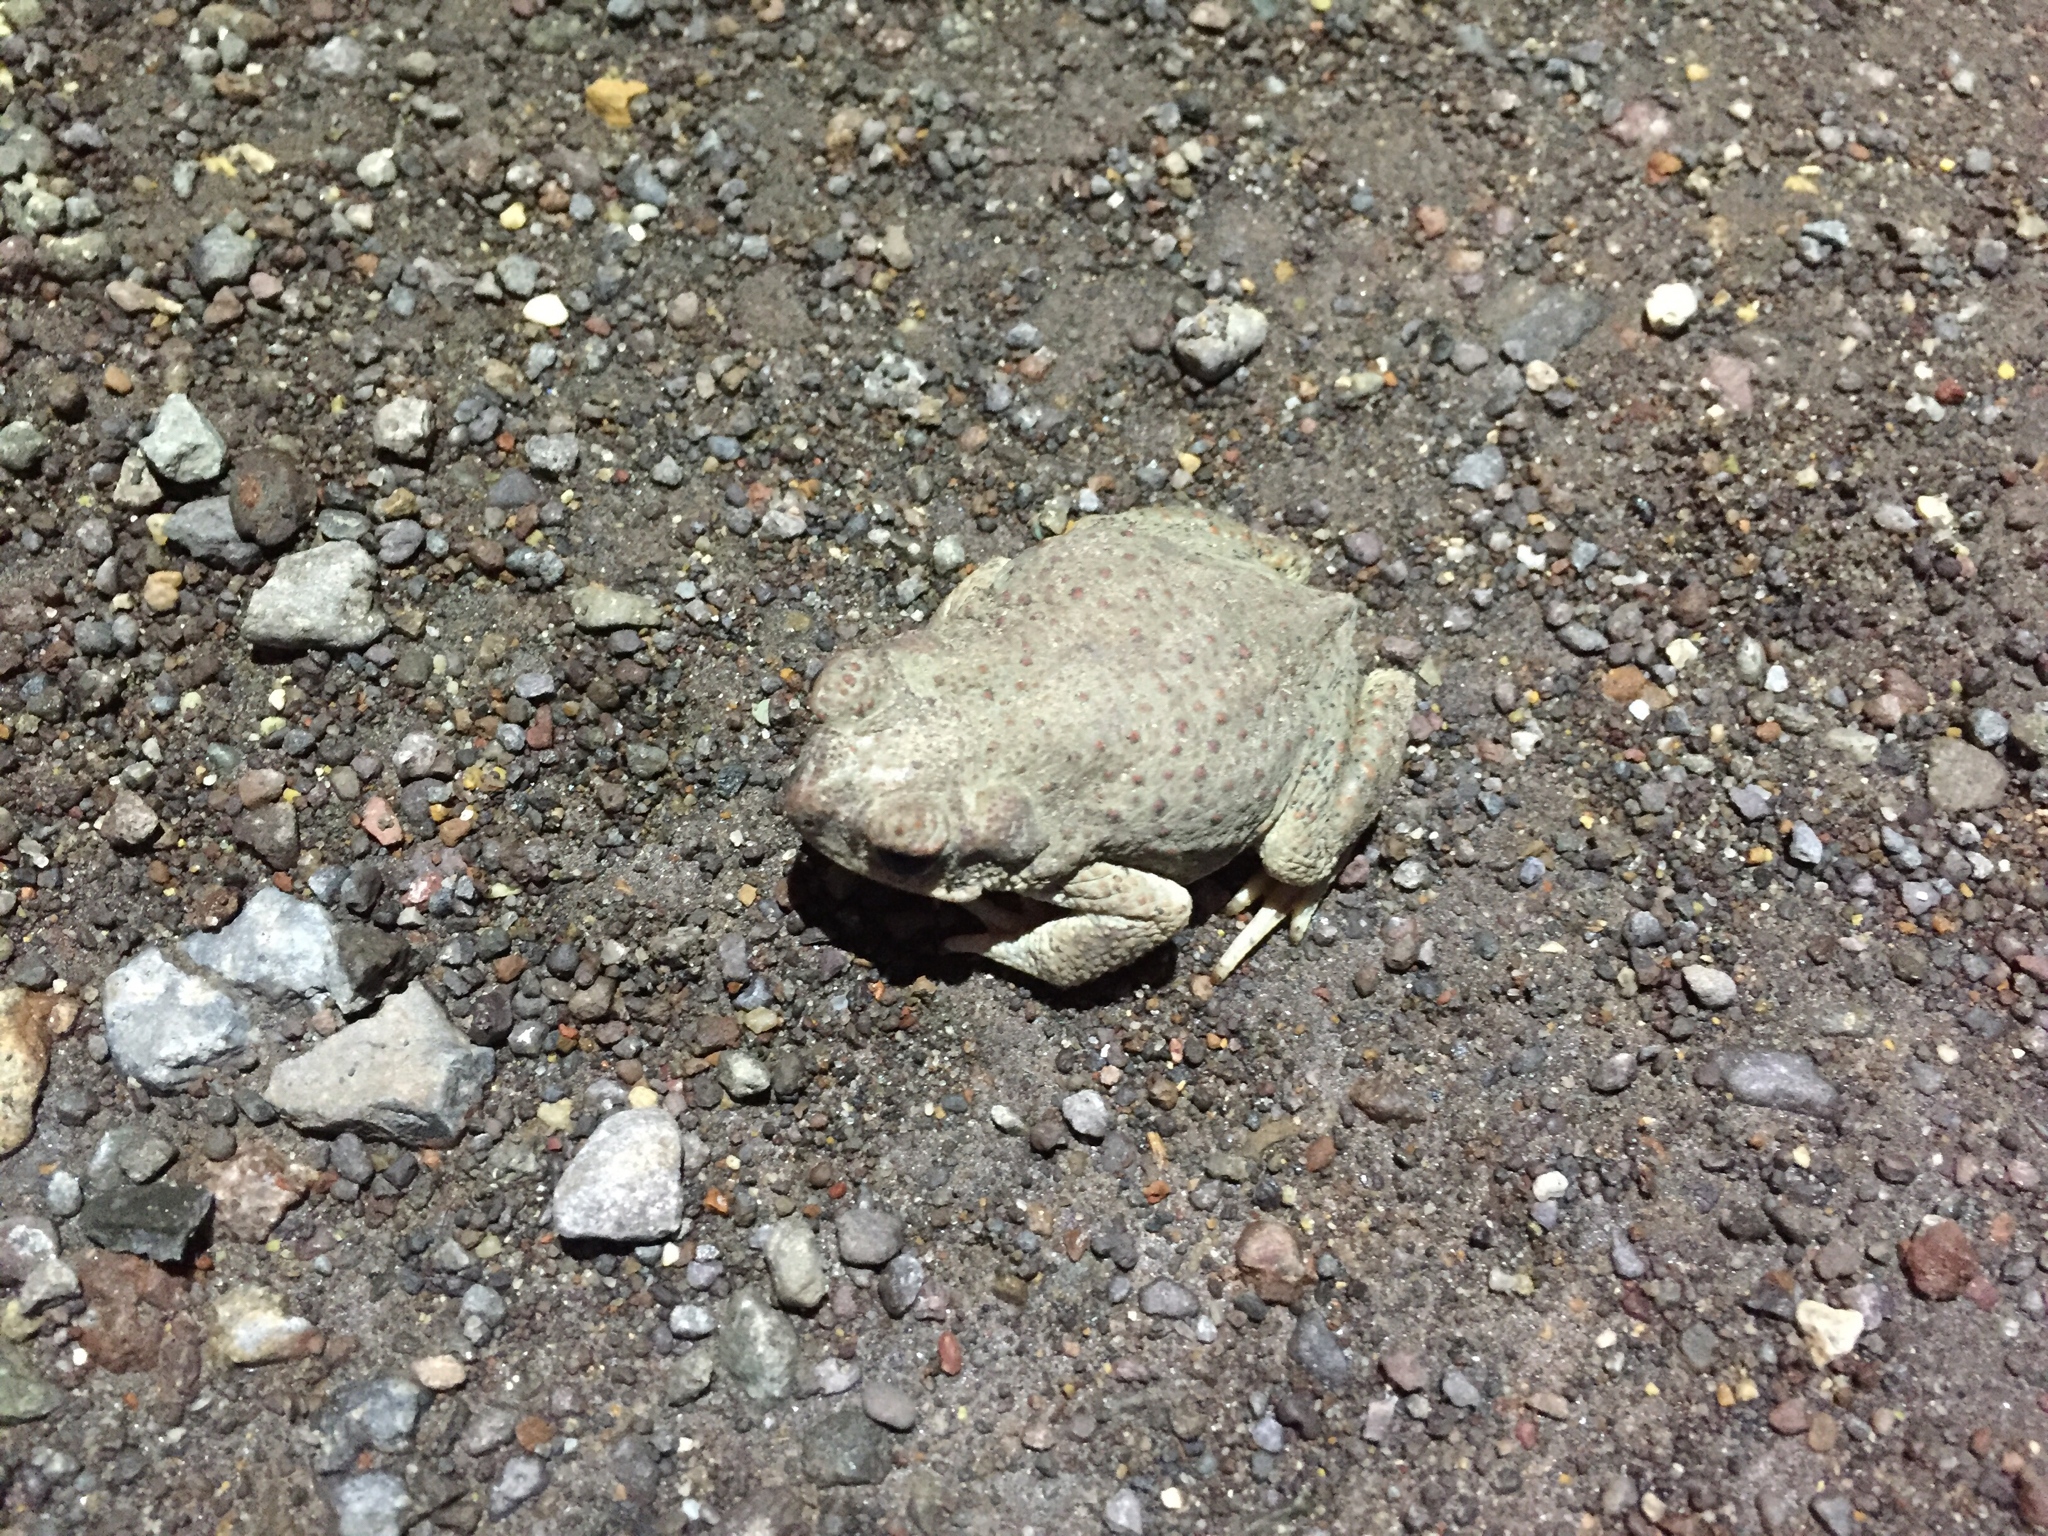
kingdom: Animalia
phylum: Chordata
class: Amphibia
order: Anura
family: Bufonidae
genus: Anaxyrus
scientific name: Anaxyrus punctatus
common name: Red-spotted toad
